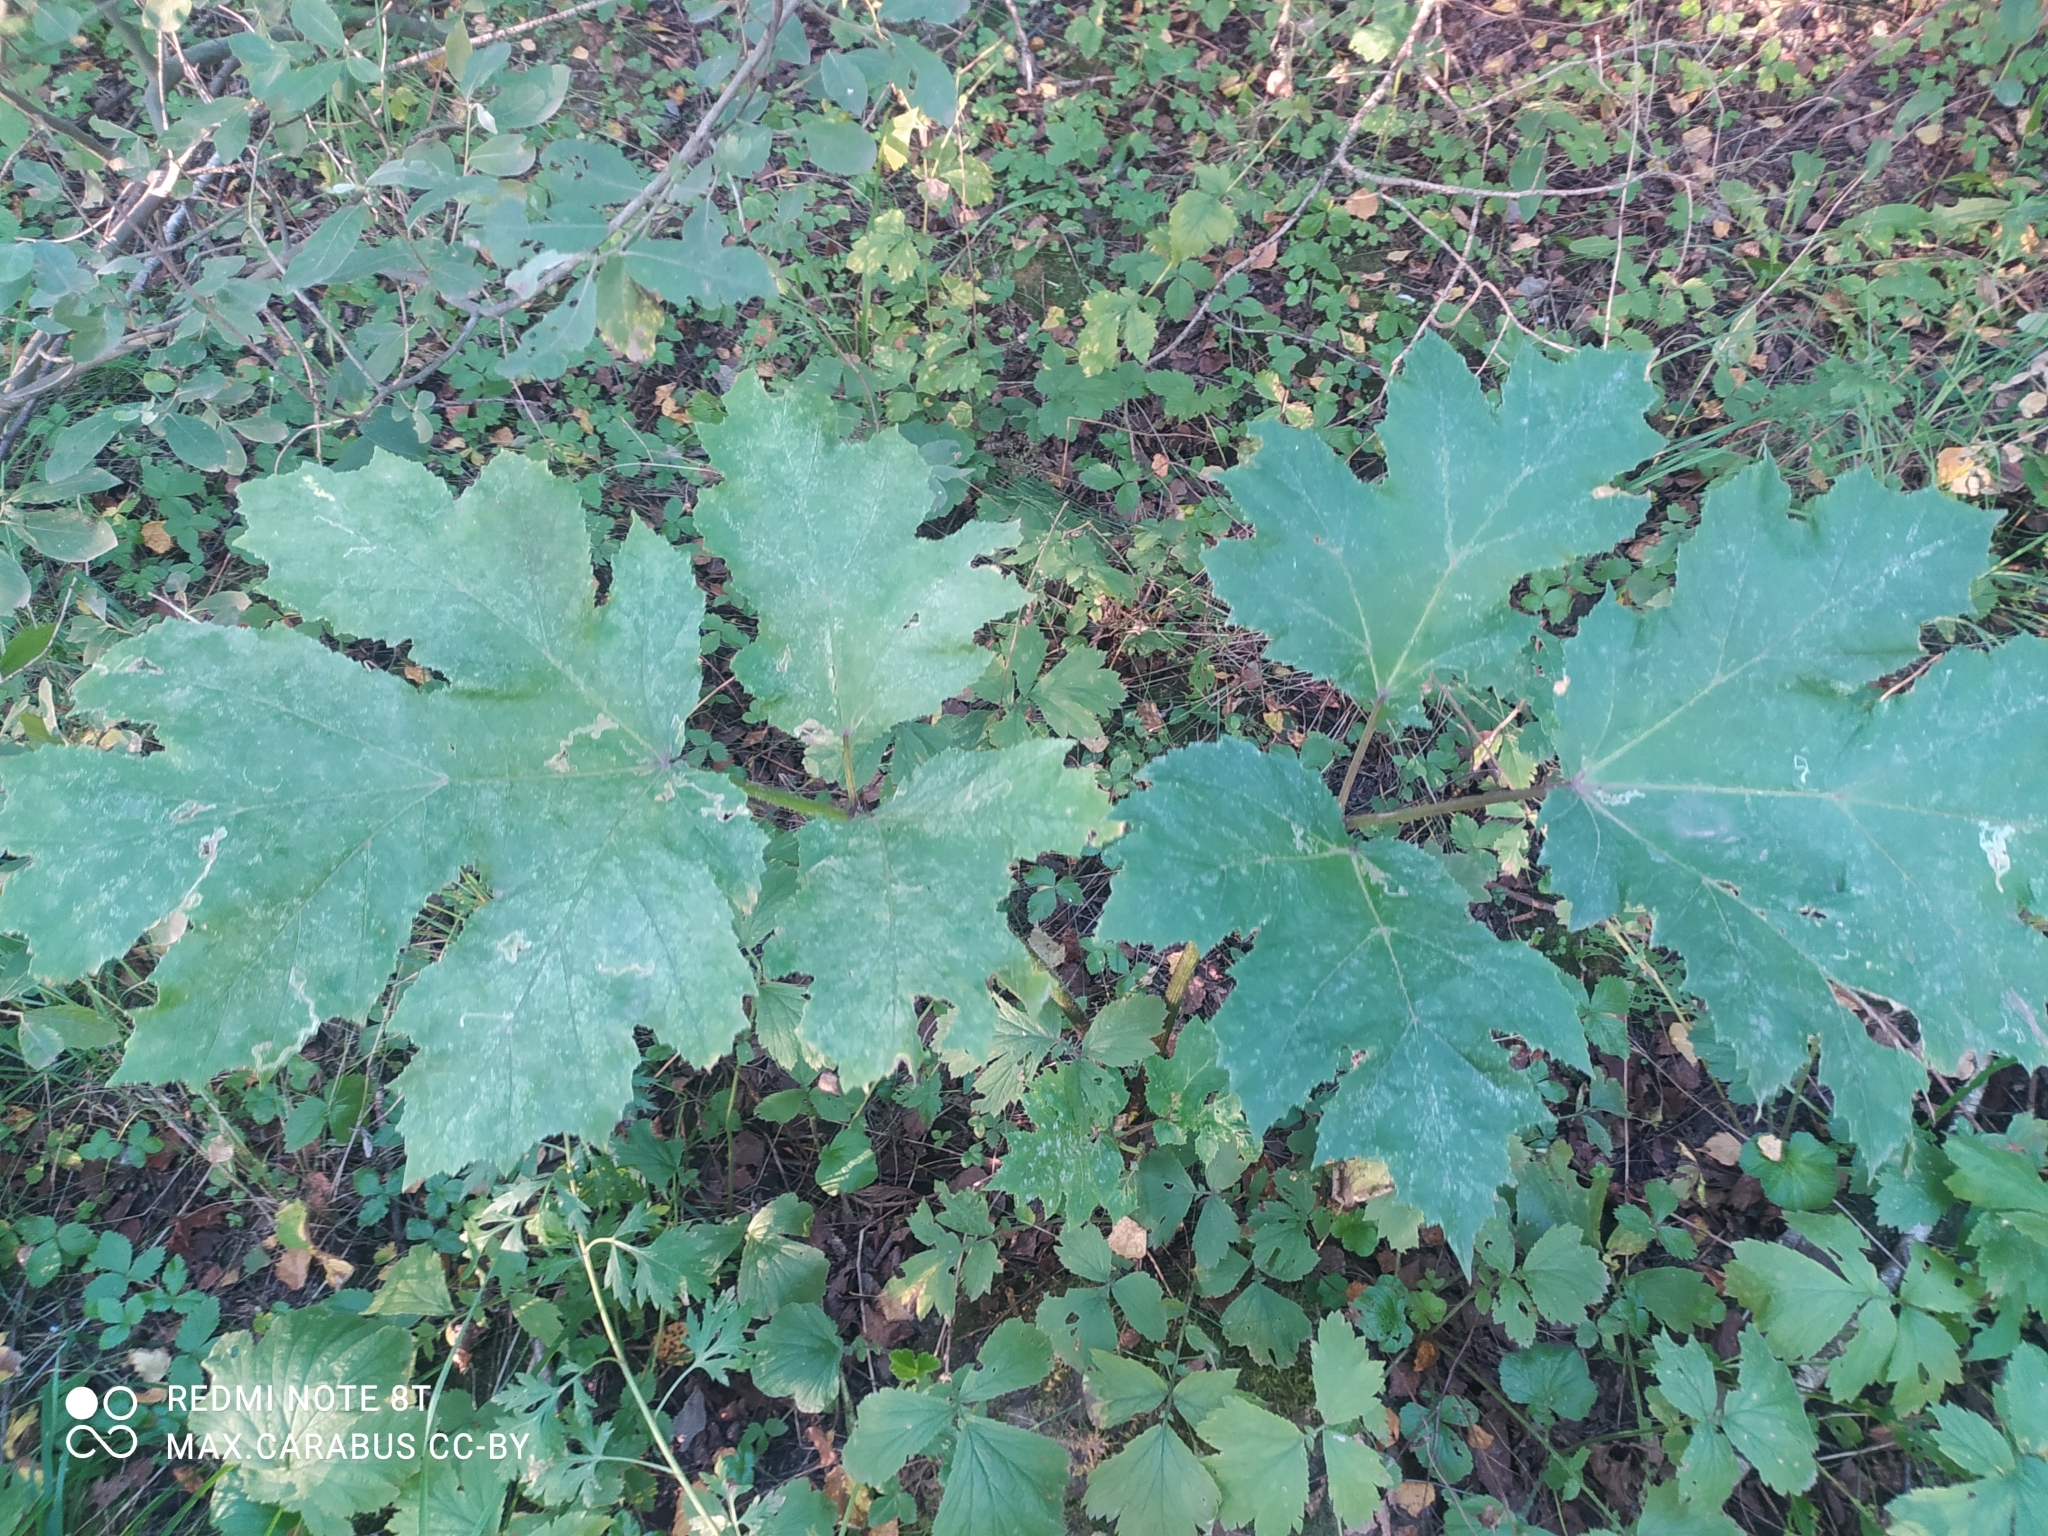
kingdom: Plantae
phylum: Tracheophyta
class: Magnoliopsida
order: Apiales
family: Apiaceae
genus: Heracleum
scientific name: Heracleum sosnowskyi
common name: Sosnowsky's hogweed
